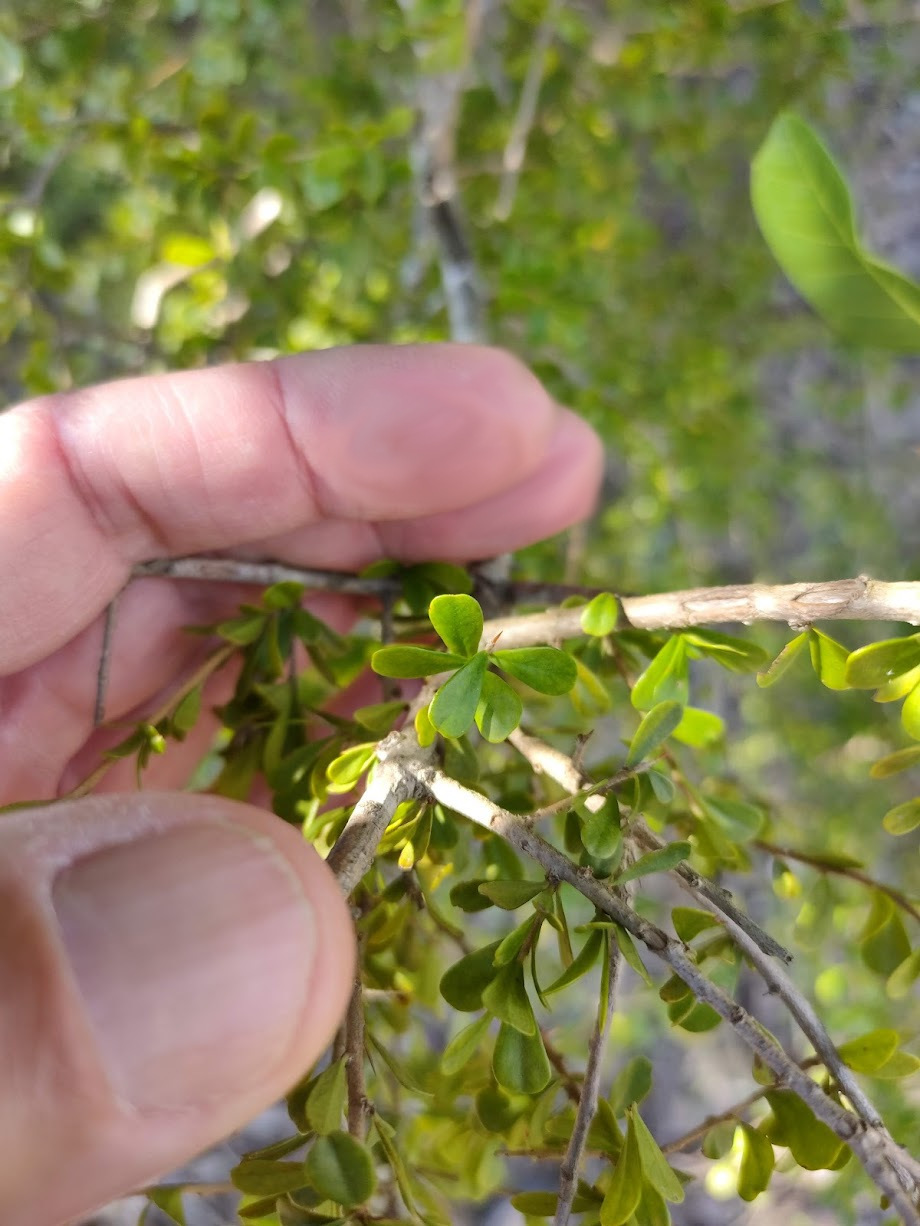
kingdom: Plantae
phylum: Tracheophyta
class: Magnoliopsida
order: Apiales
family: Pittosporaceae
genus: Pittosporum
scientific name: Pittosporum spinescens
